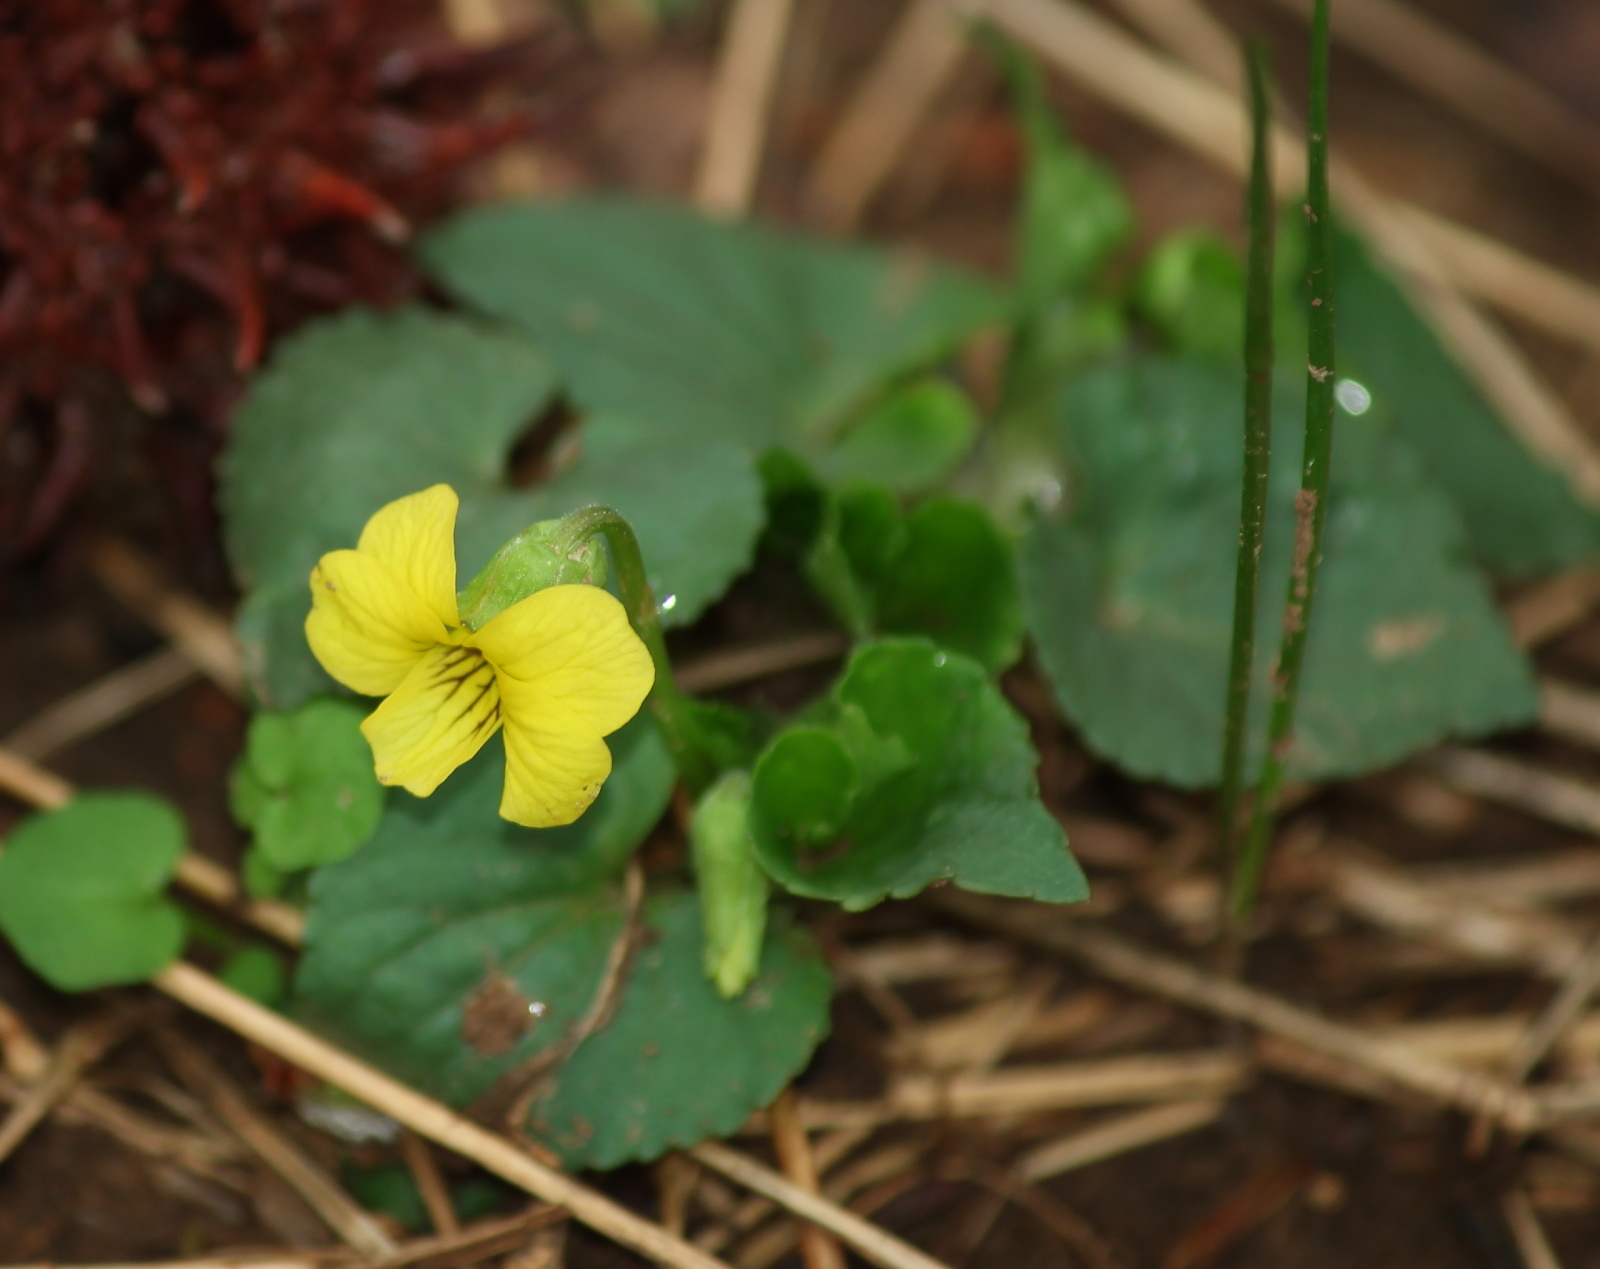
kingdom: Plantae
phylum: Tracheophyta
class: Magnoliopsida
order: Malpighiales
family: Violaceae
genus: Viola
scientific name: Viola eriocarpa
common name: Smooth yellow violet
